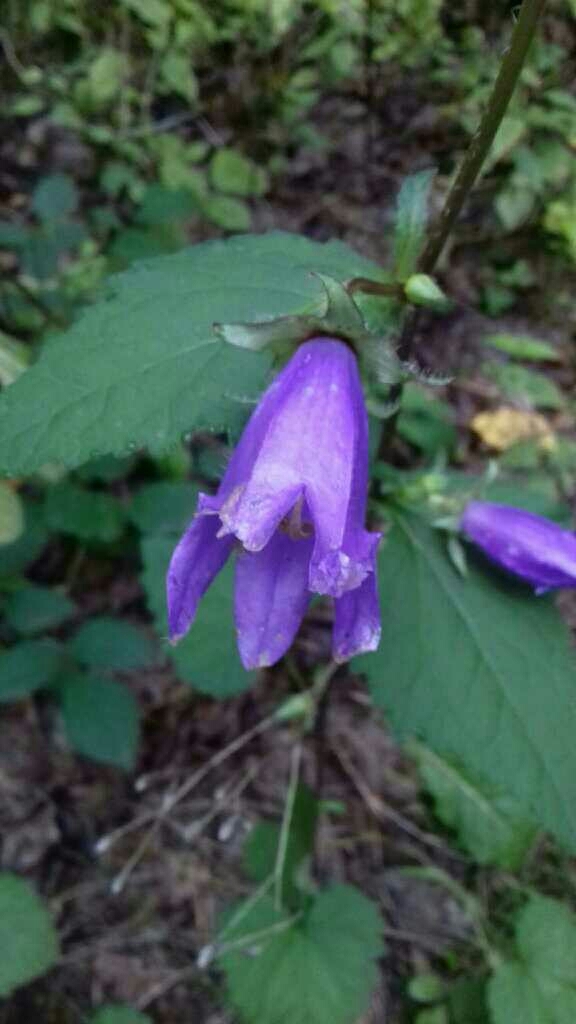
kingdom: Plantae
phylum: Tracheophyta
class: Magnoliopsida
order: Asterales
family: Campanulaceae
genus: Campanula
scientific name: Campanula trachelium
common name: Nettle-leaved bellflower
